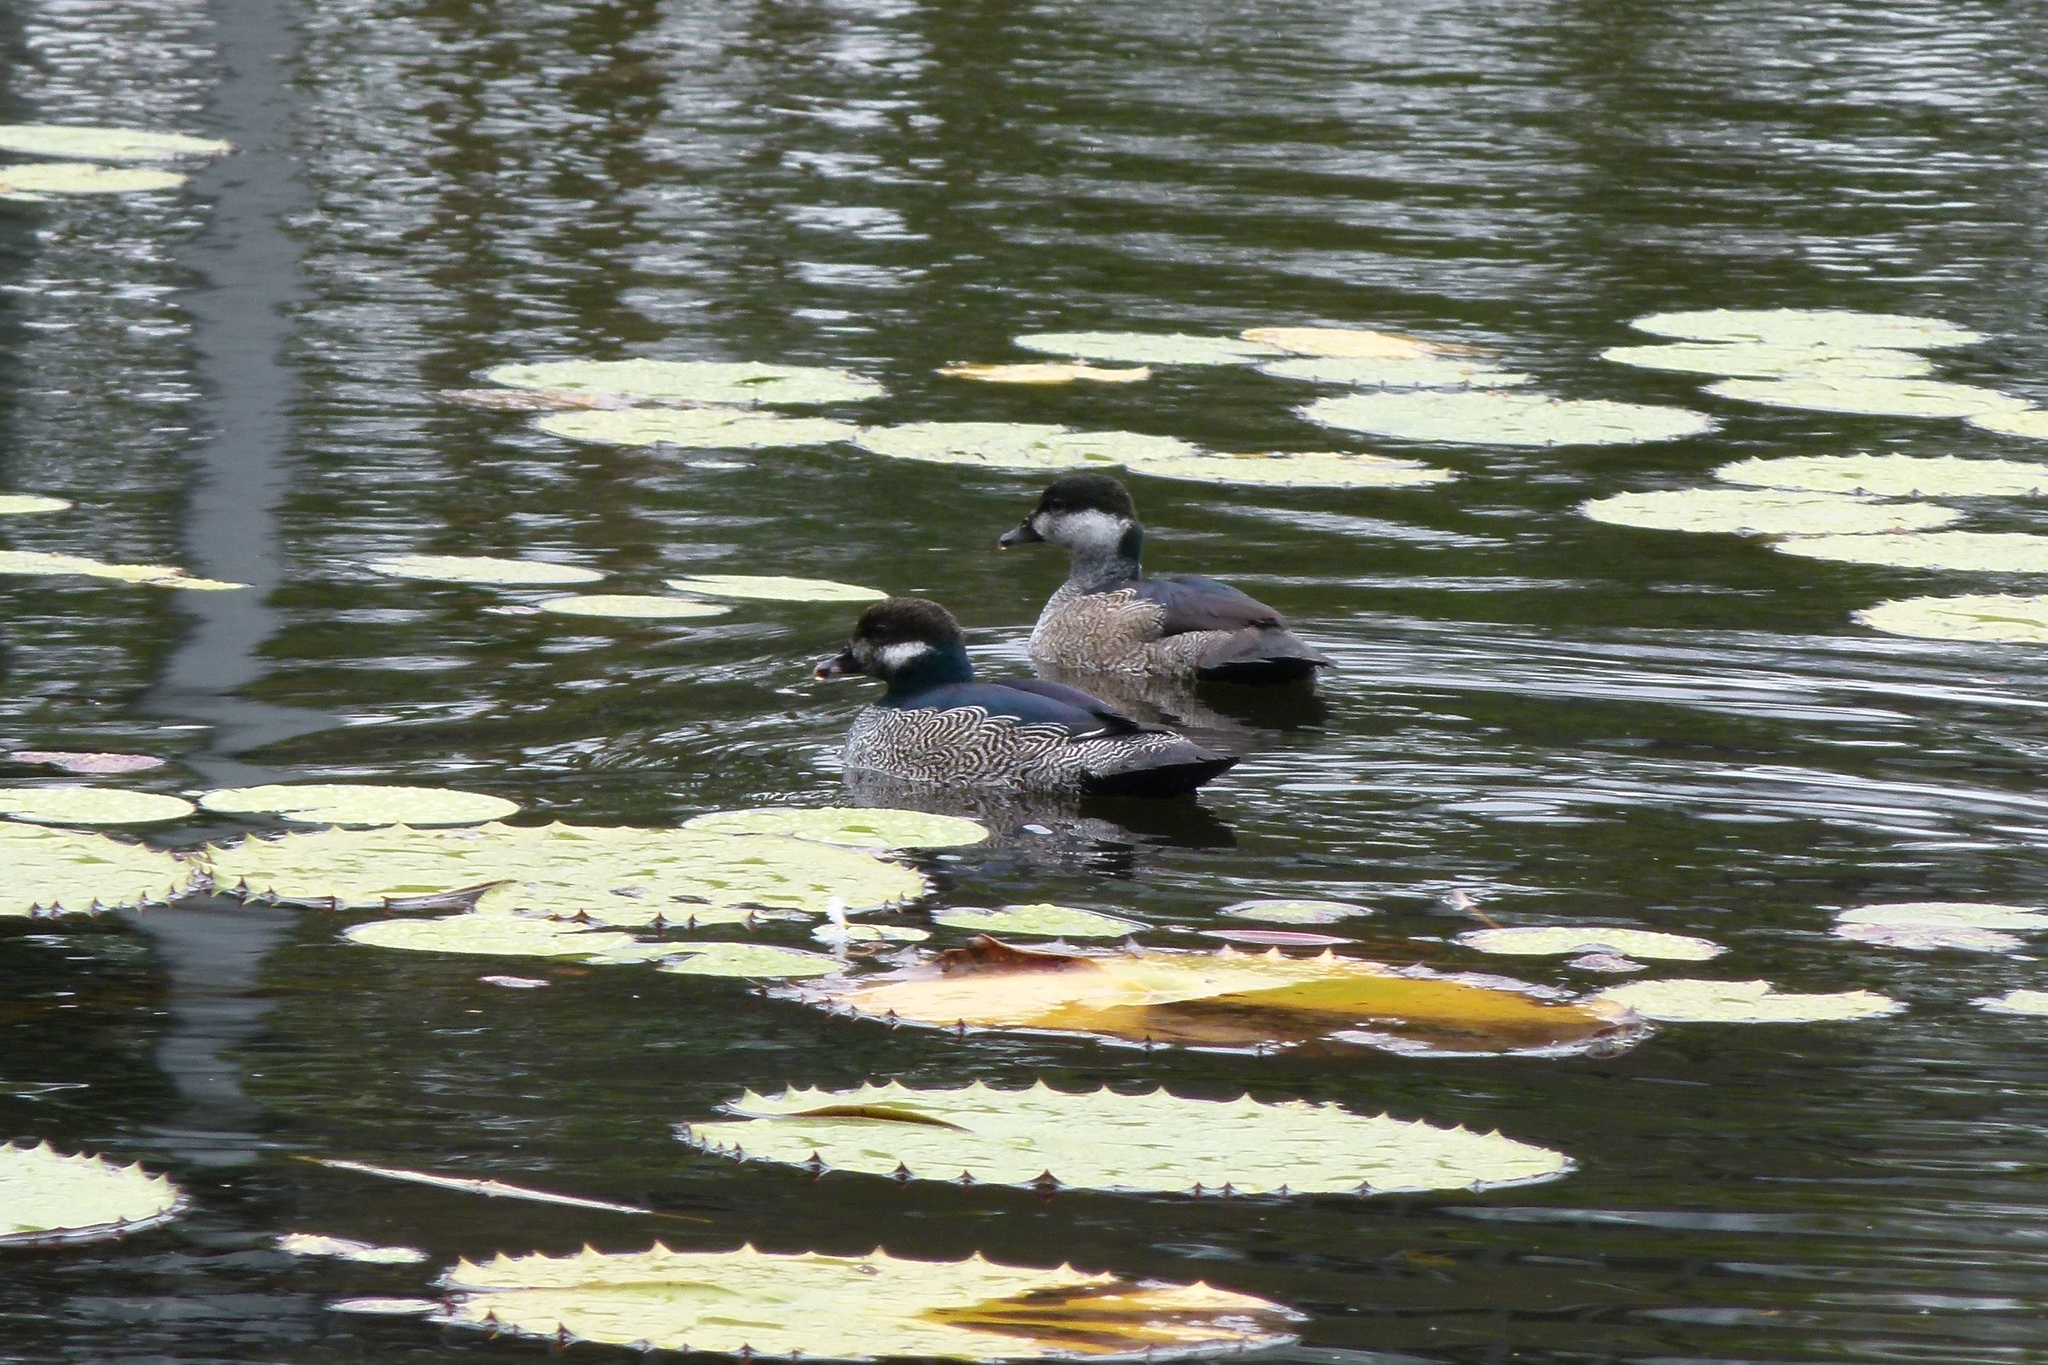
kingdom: Animalia
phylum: Chordata
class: Aves
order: Anseriformes
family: Anatidae
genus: Nettapus
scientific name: Nettapus pulchellus
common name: Green pygmy-goose
